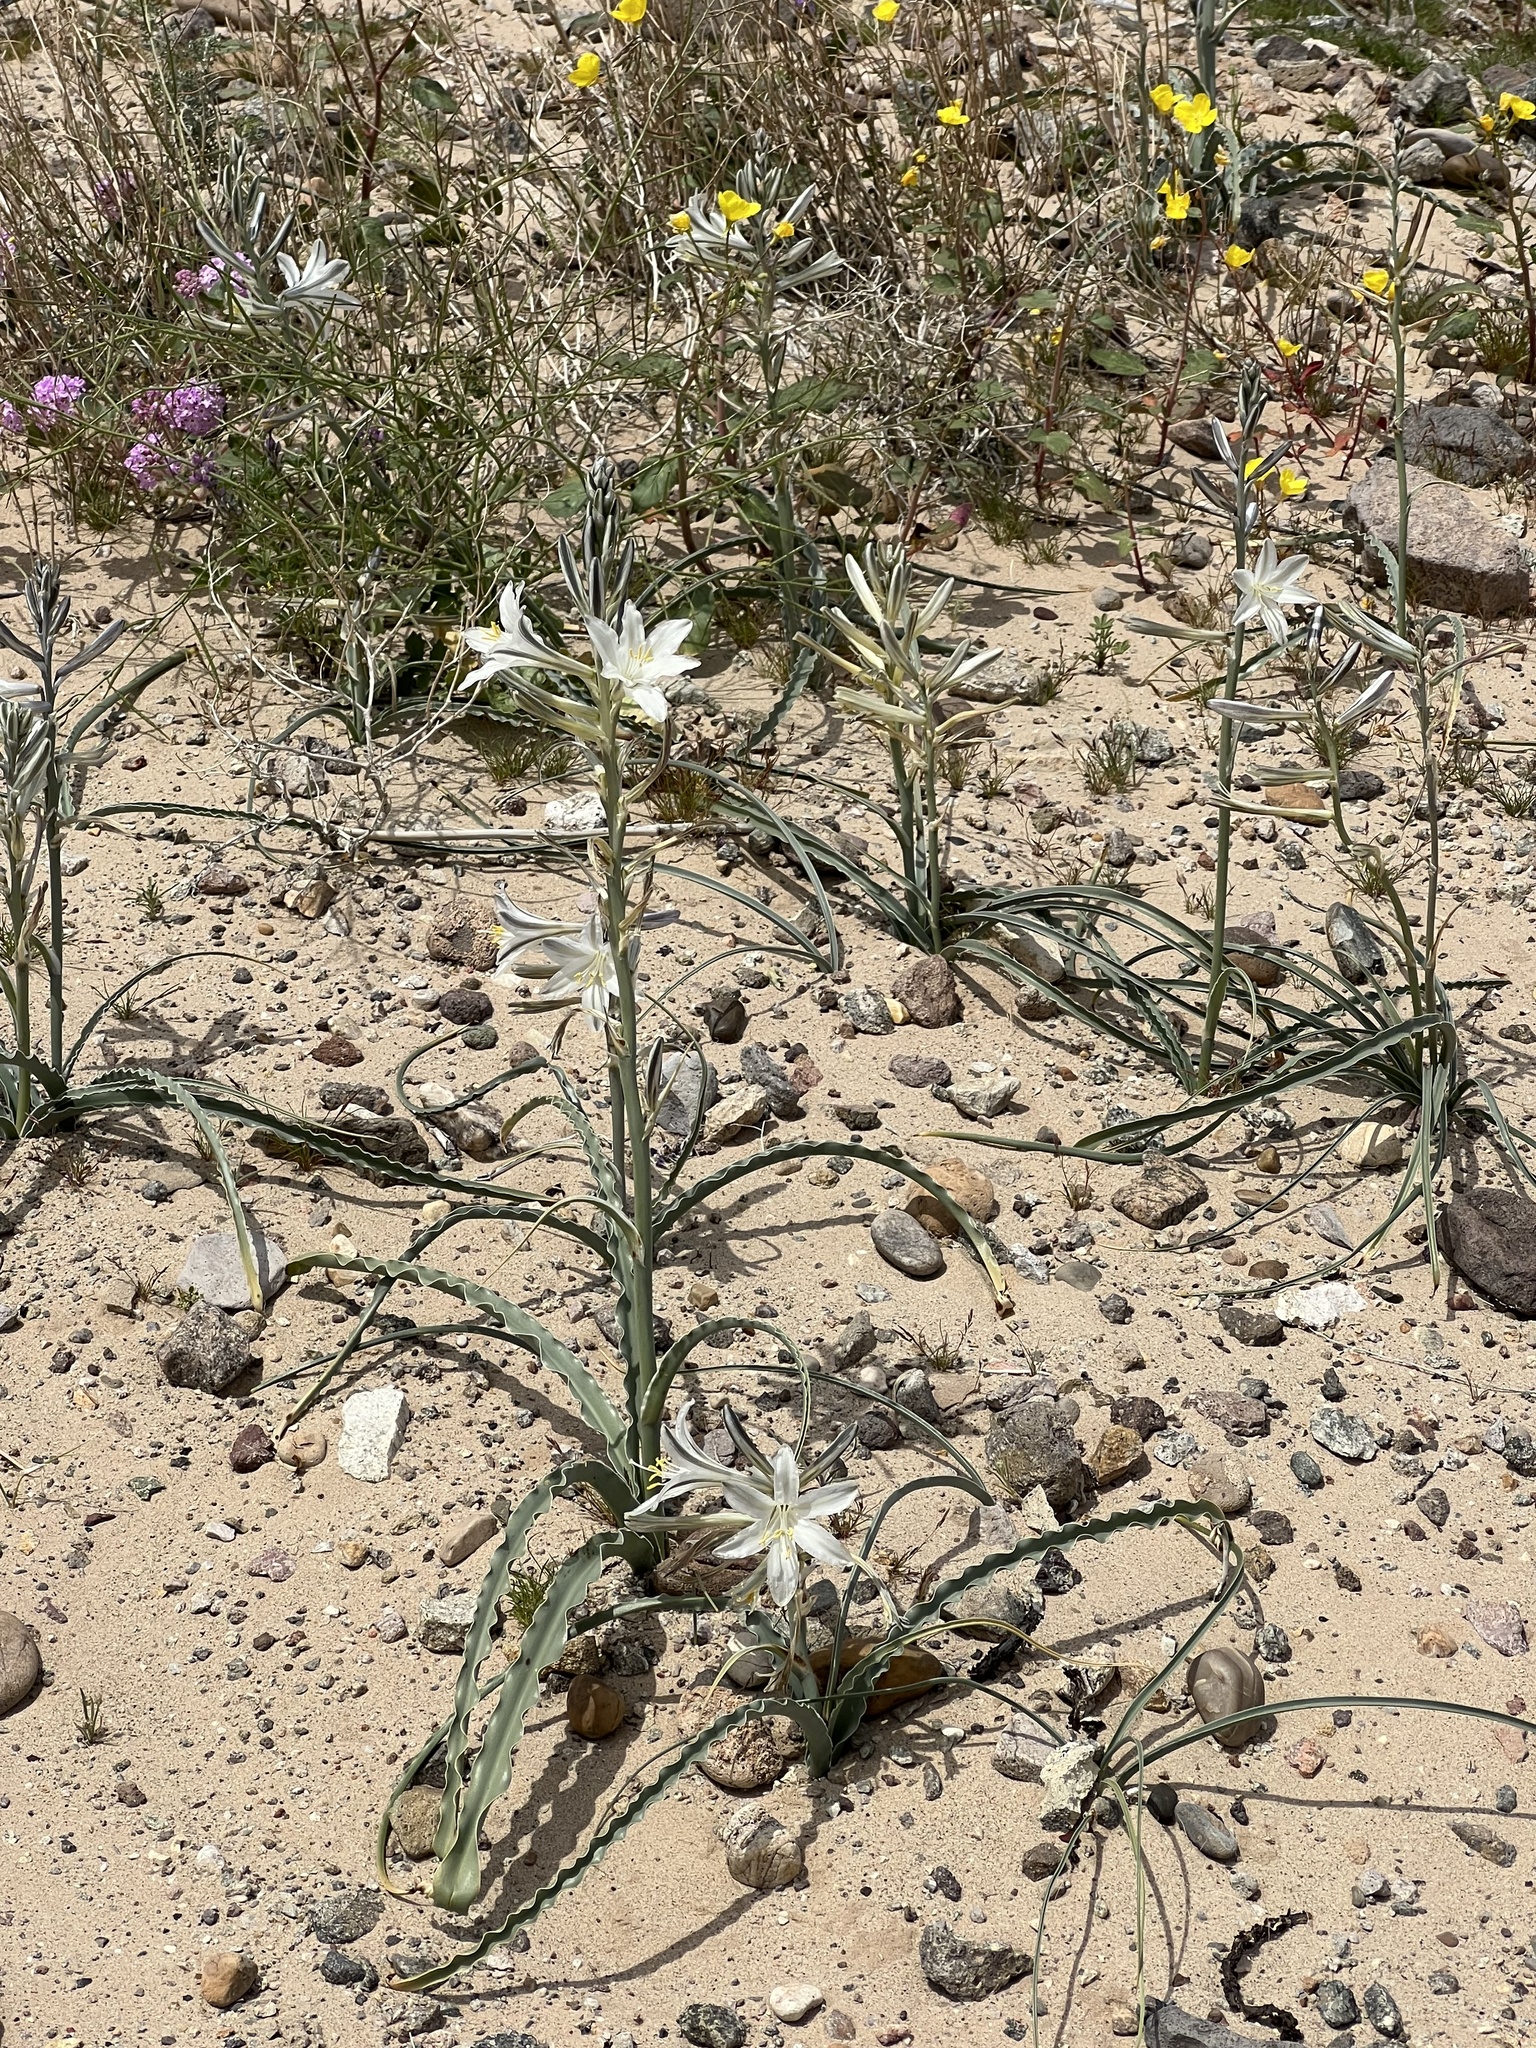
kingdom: Plantae
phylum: Tracheophyta
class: Liliopsida
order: Asparagales
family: Asparagaceae
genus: Hesperocallis
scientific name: Hesperocallis undulata
